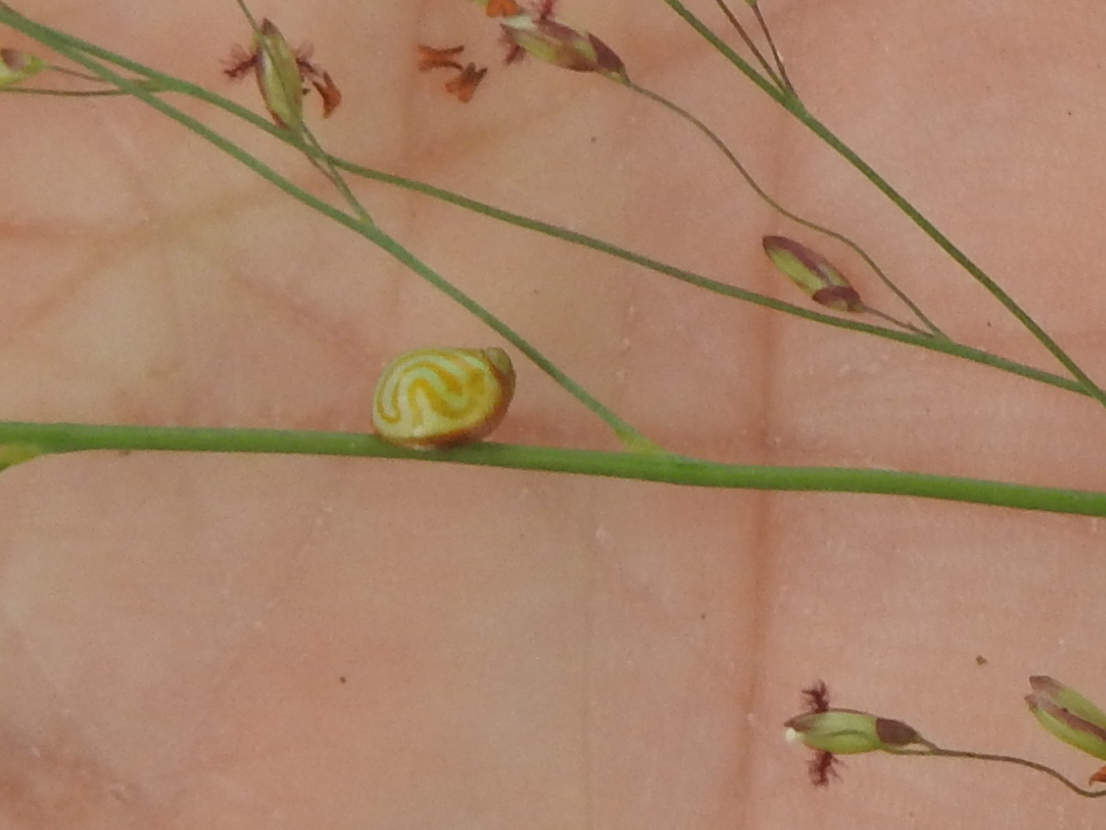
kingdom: Animalia
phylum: Arthropoda
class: Insecta
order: Hemiptera
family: Issidae
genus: Hemisphaerius
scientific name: Hemisphaerius binduseni
